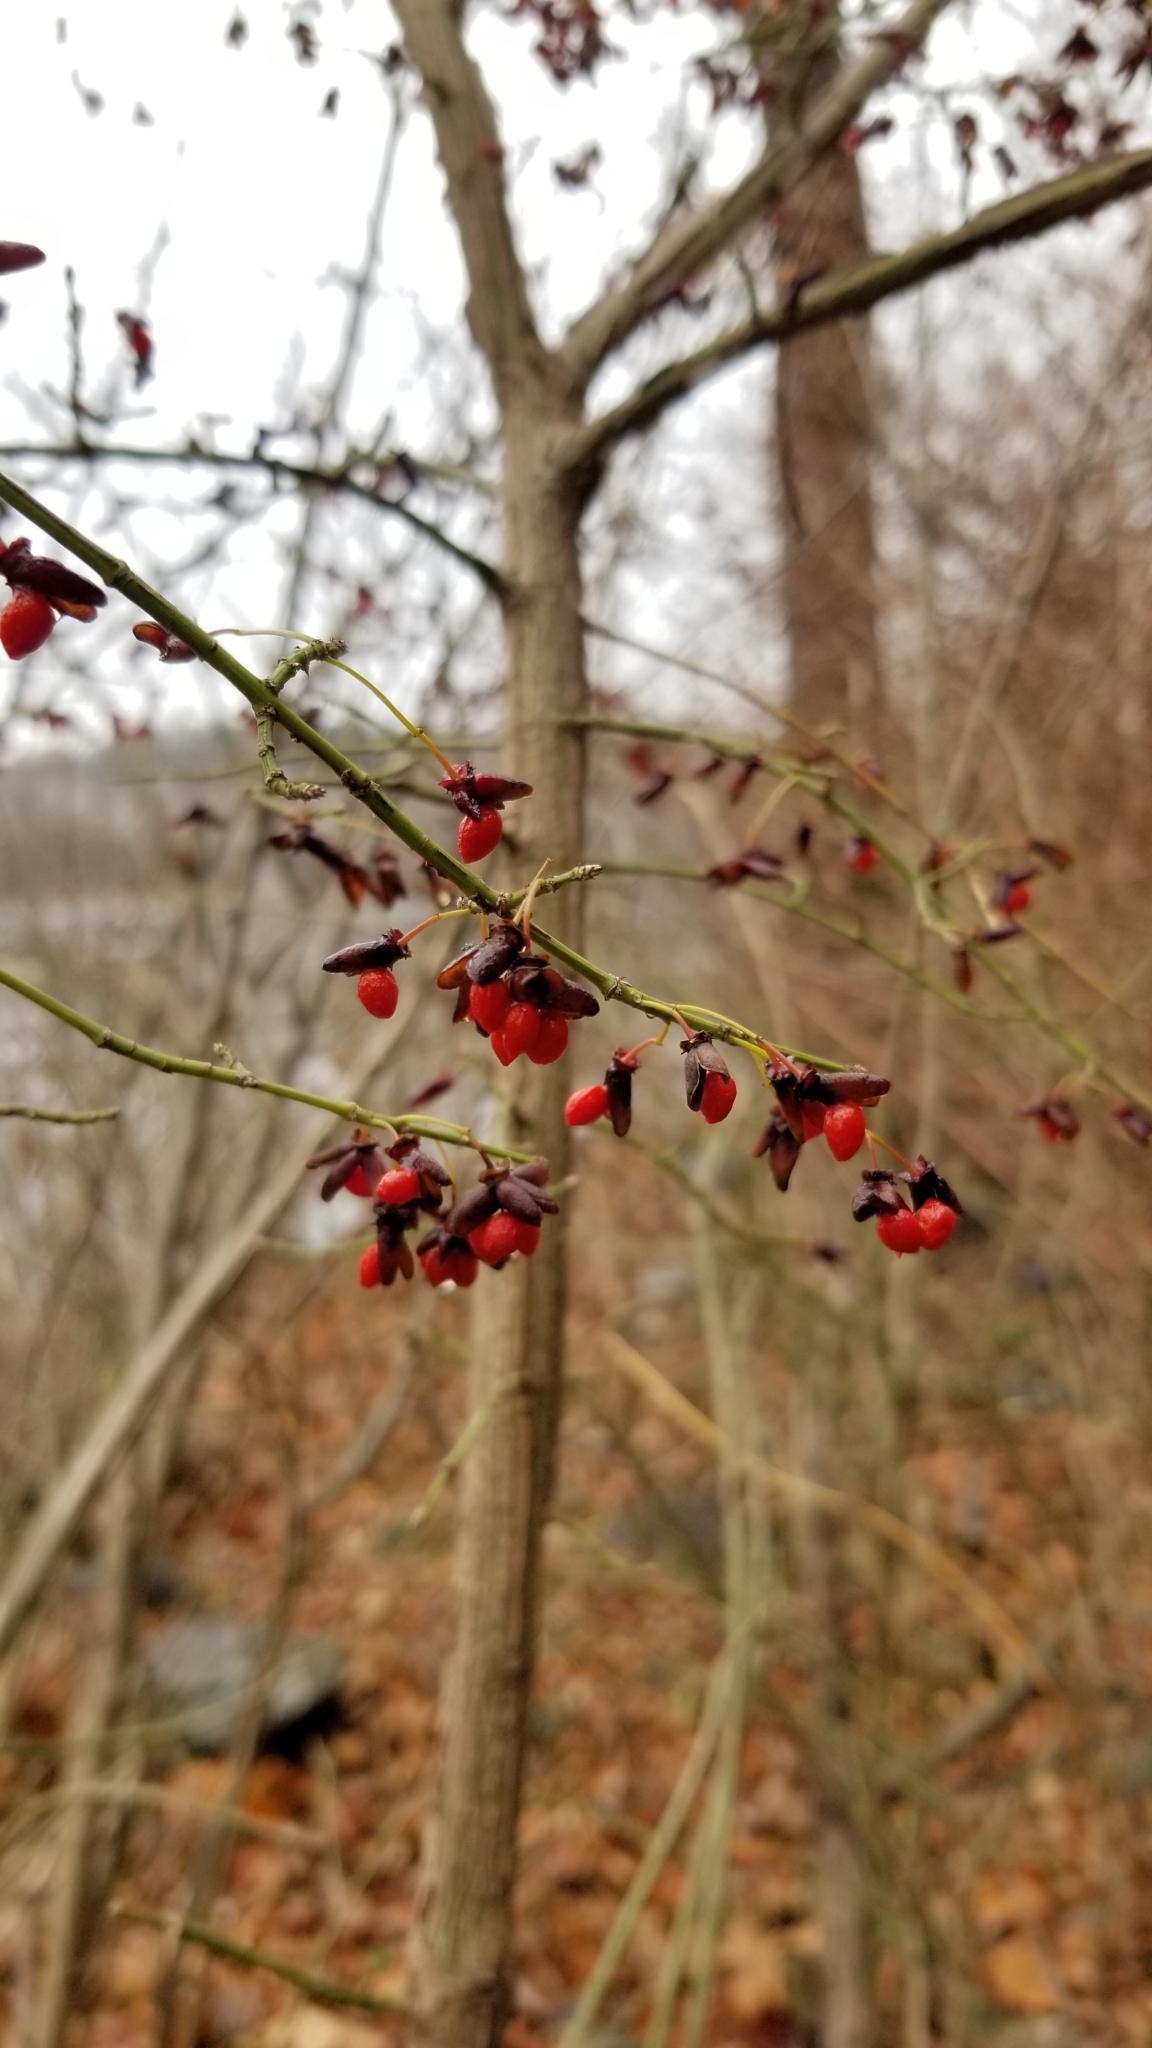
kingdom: Plantae
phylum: Tracheophyta
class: Magnoliopsida
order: Celastrales
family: Celastraceae
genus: Euonymus
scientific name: Euonymus alatus
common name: Winged euonymus
